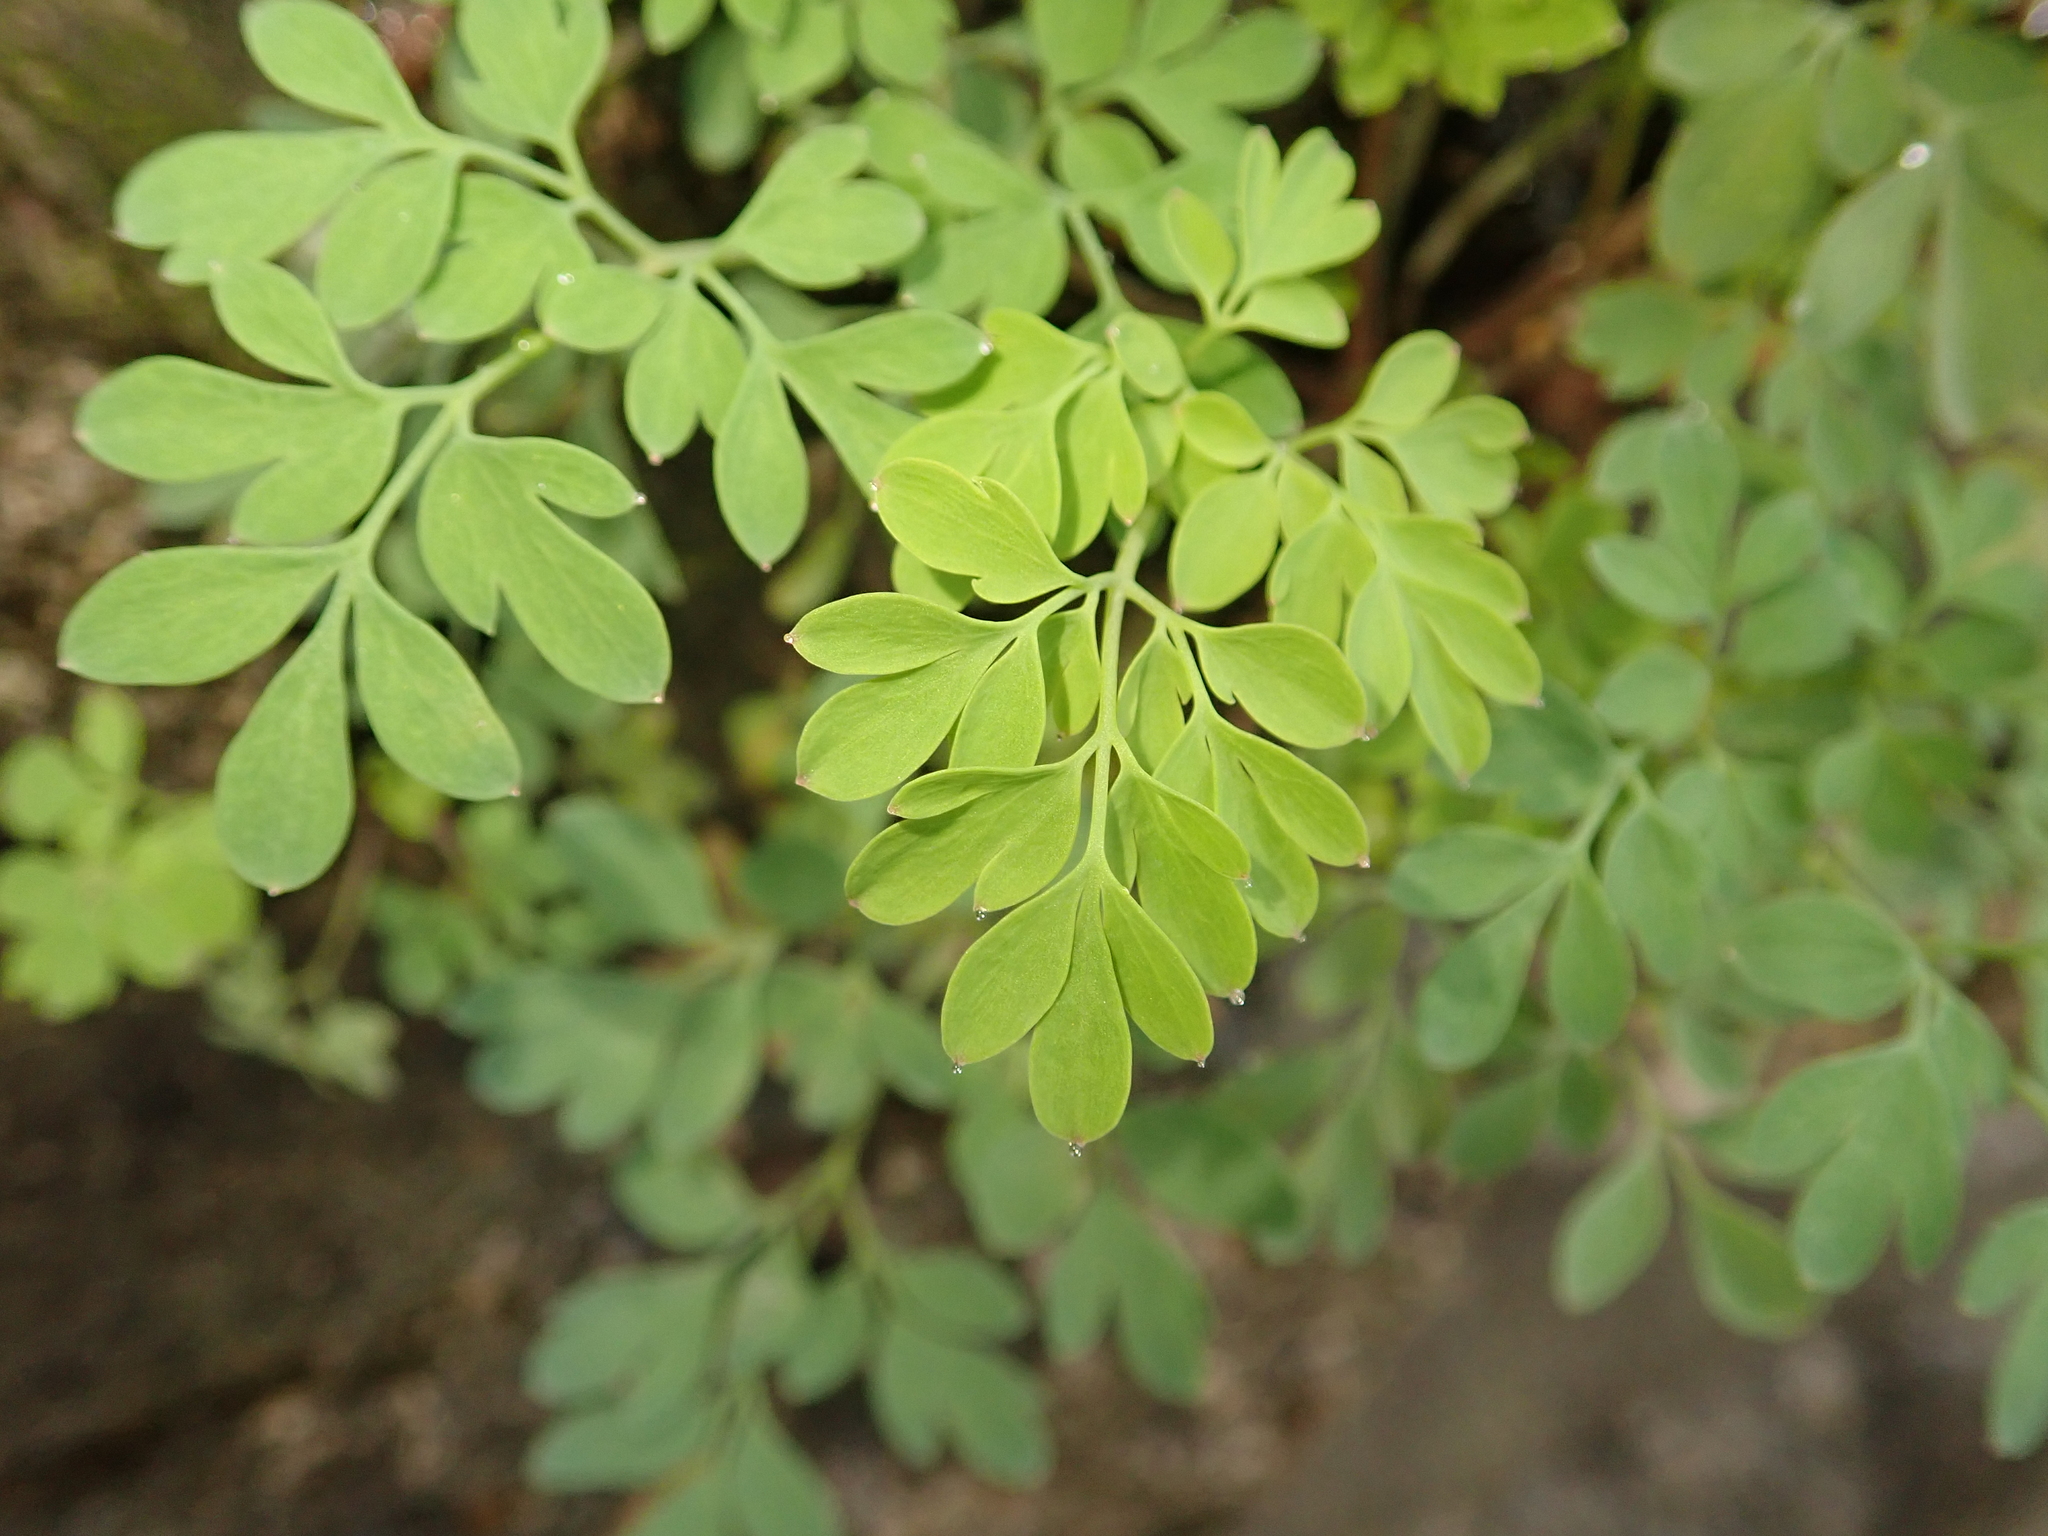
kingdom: Plantae
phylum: Tracheophyta
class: Magnoliopsida
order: Ranunculales
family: Papaveraceae
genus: Pseudofumaria
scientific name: Pseudofumaria lutea
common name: Yellow corydalis
